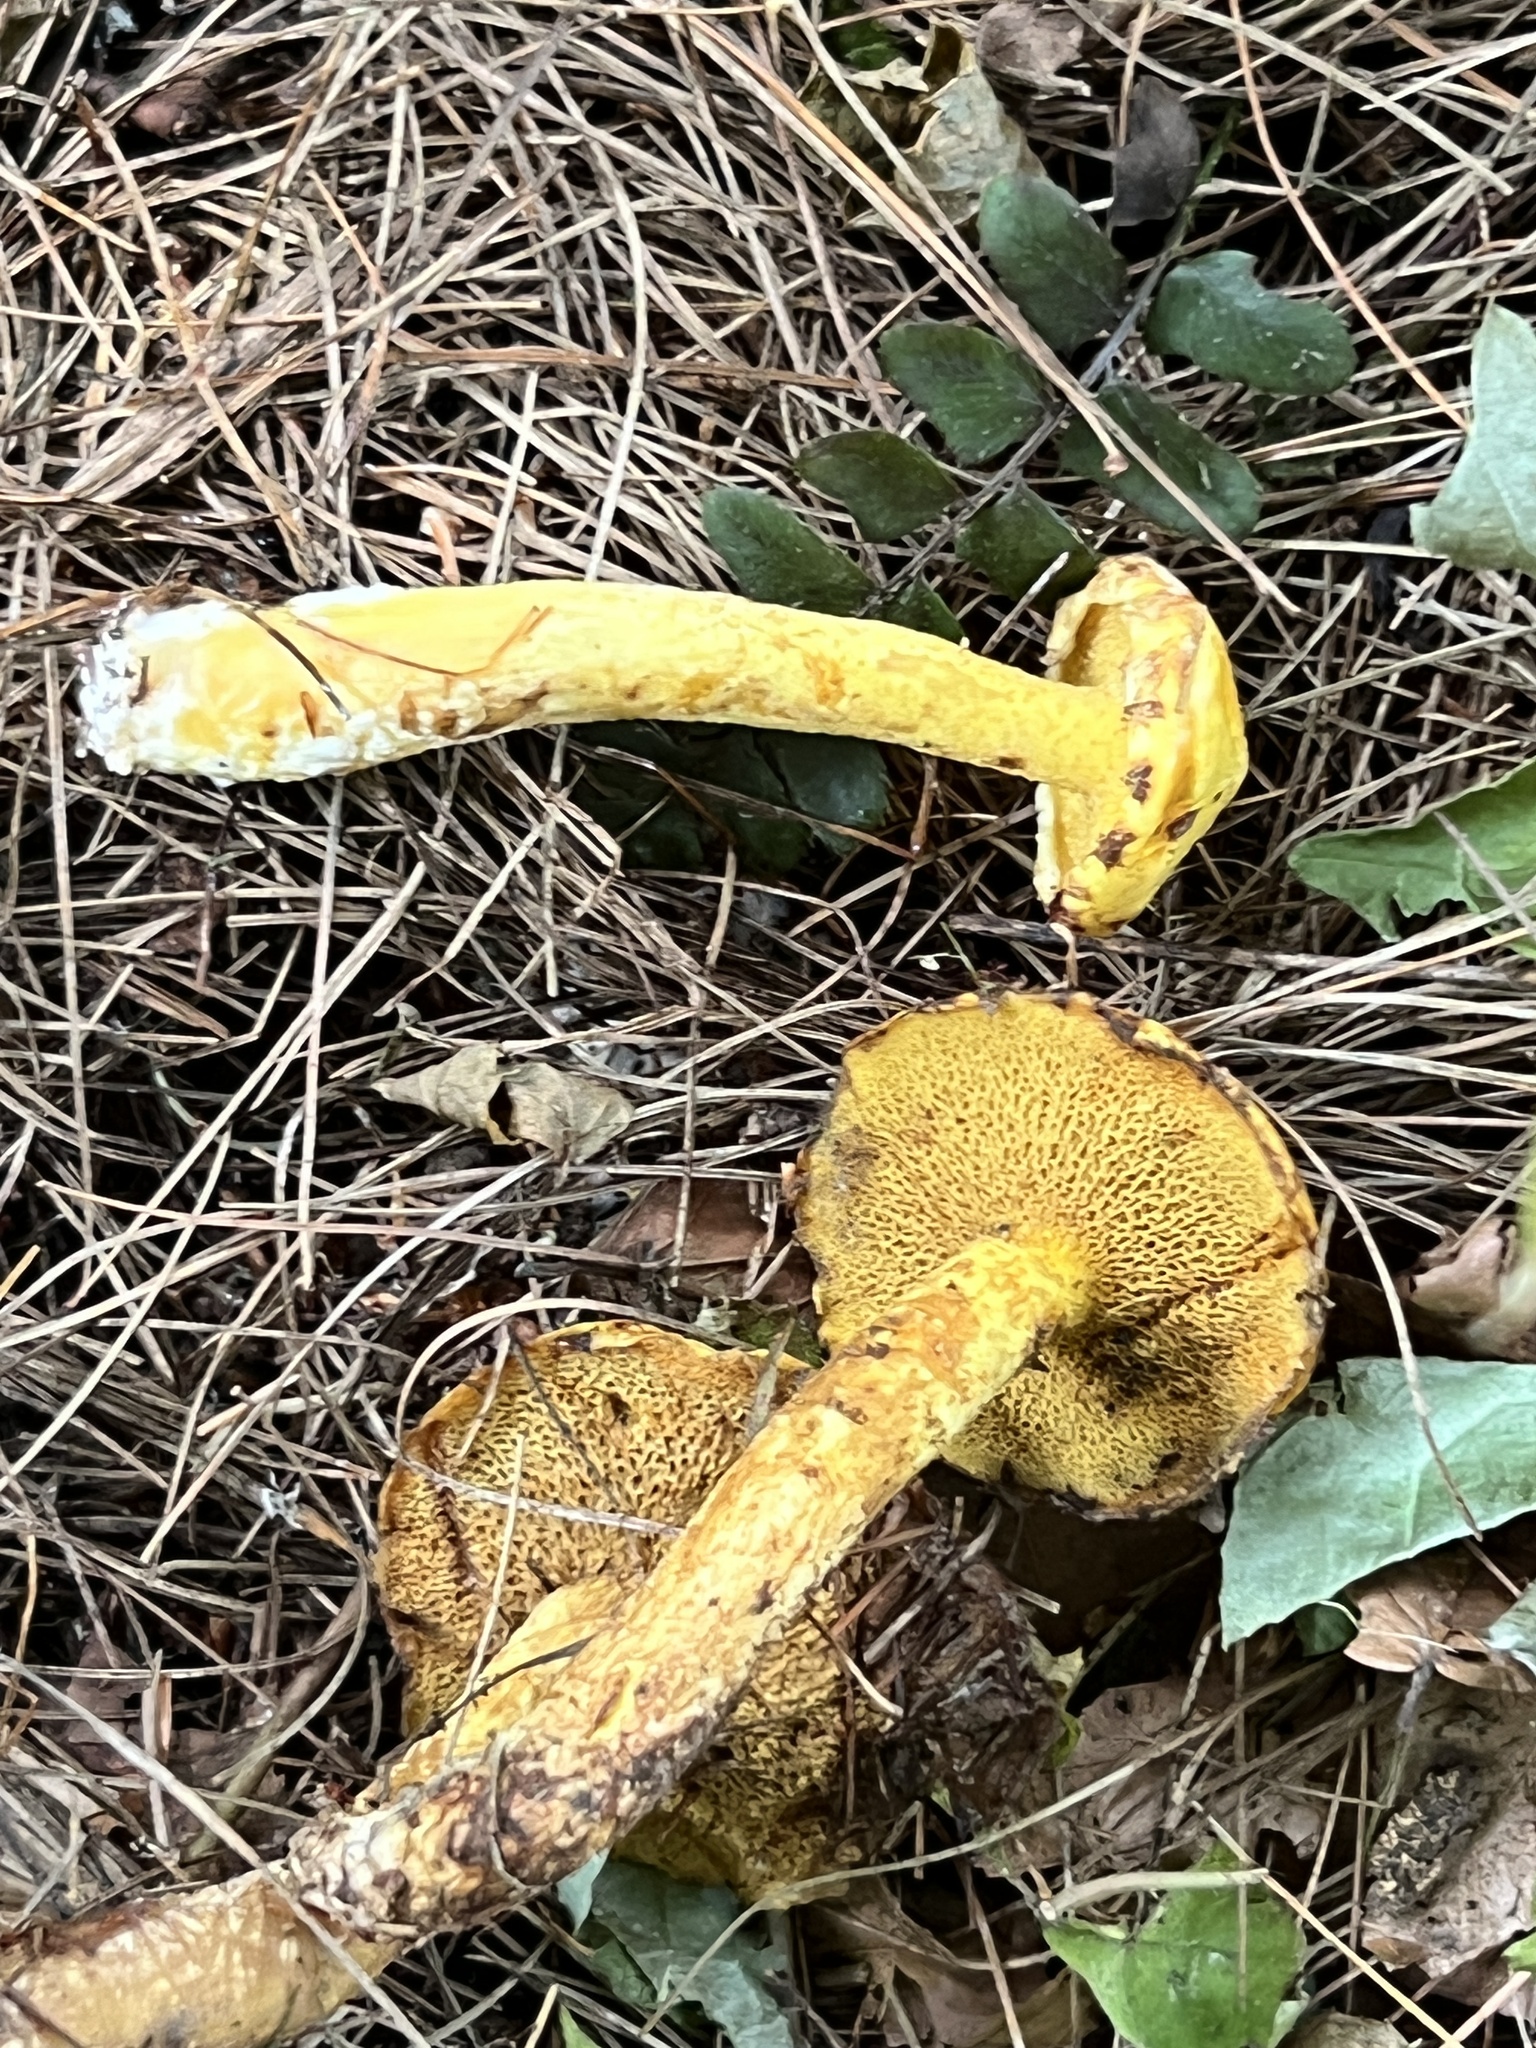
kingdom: Fungi
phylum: Basidiomycota
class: Agaricomycetes
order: Boletales
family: Suillaceae
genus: Suillus
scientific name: Suillus americanus
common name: Chicken fat mushroom
